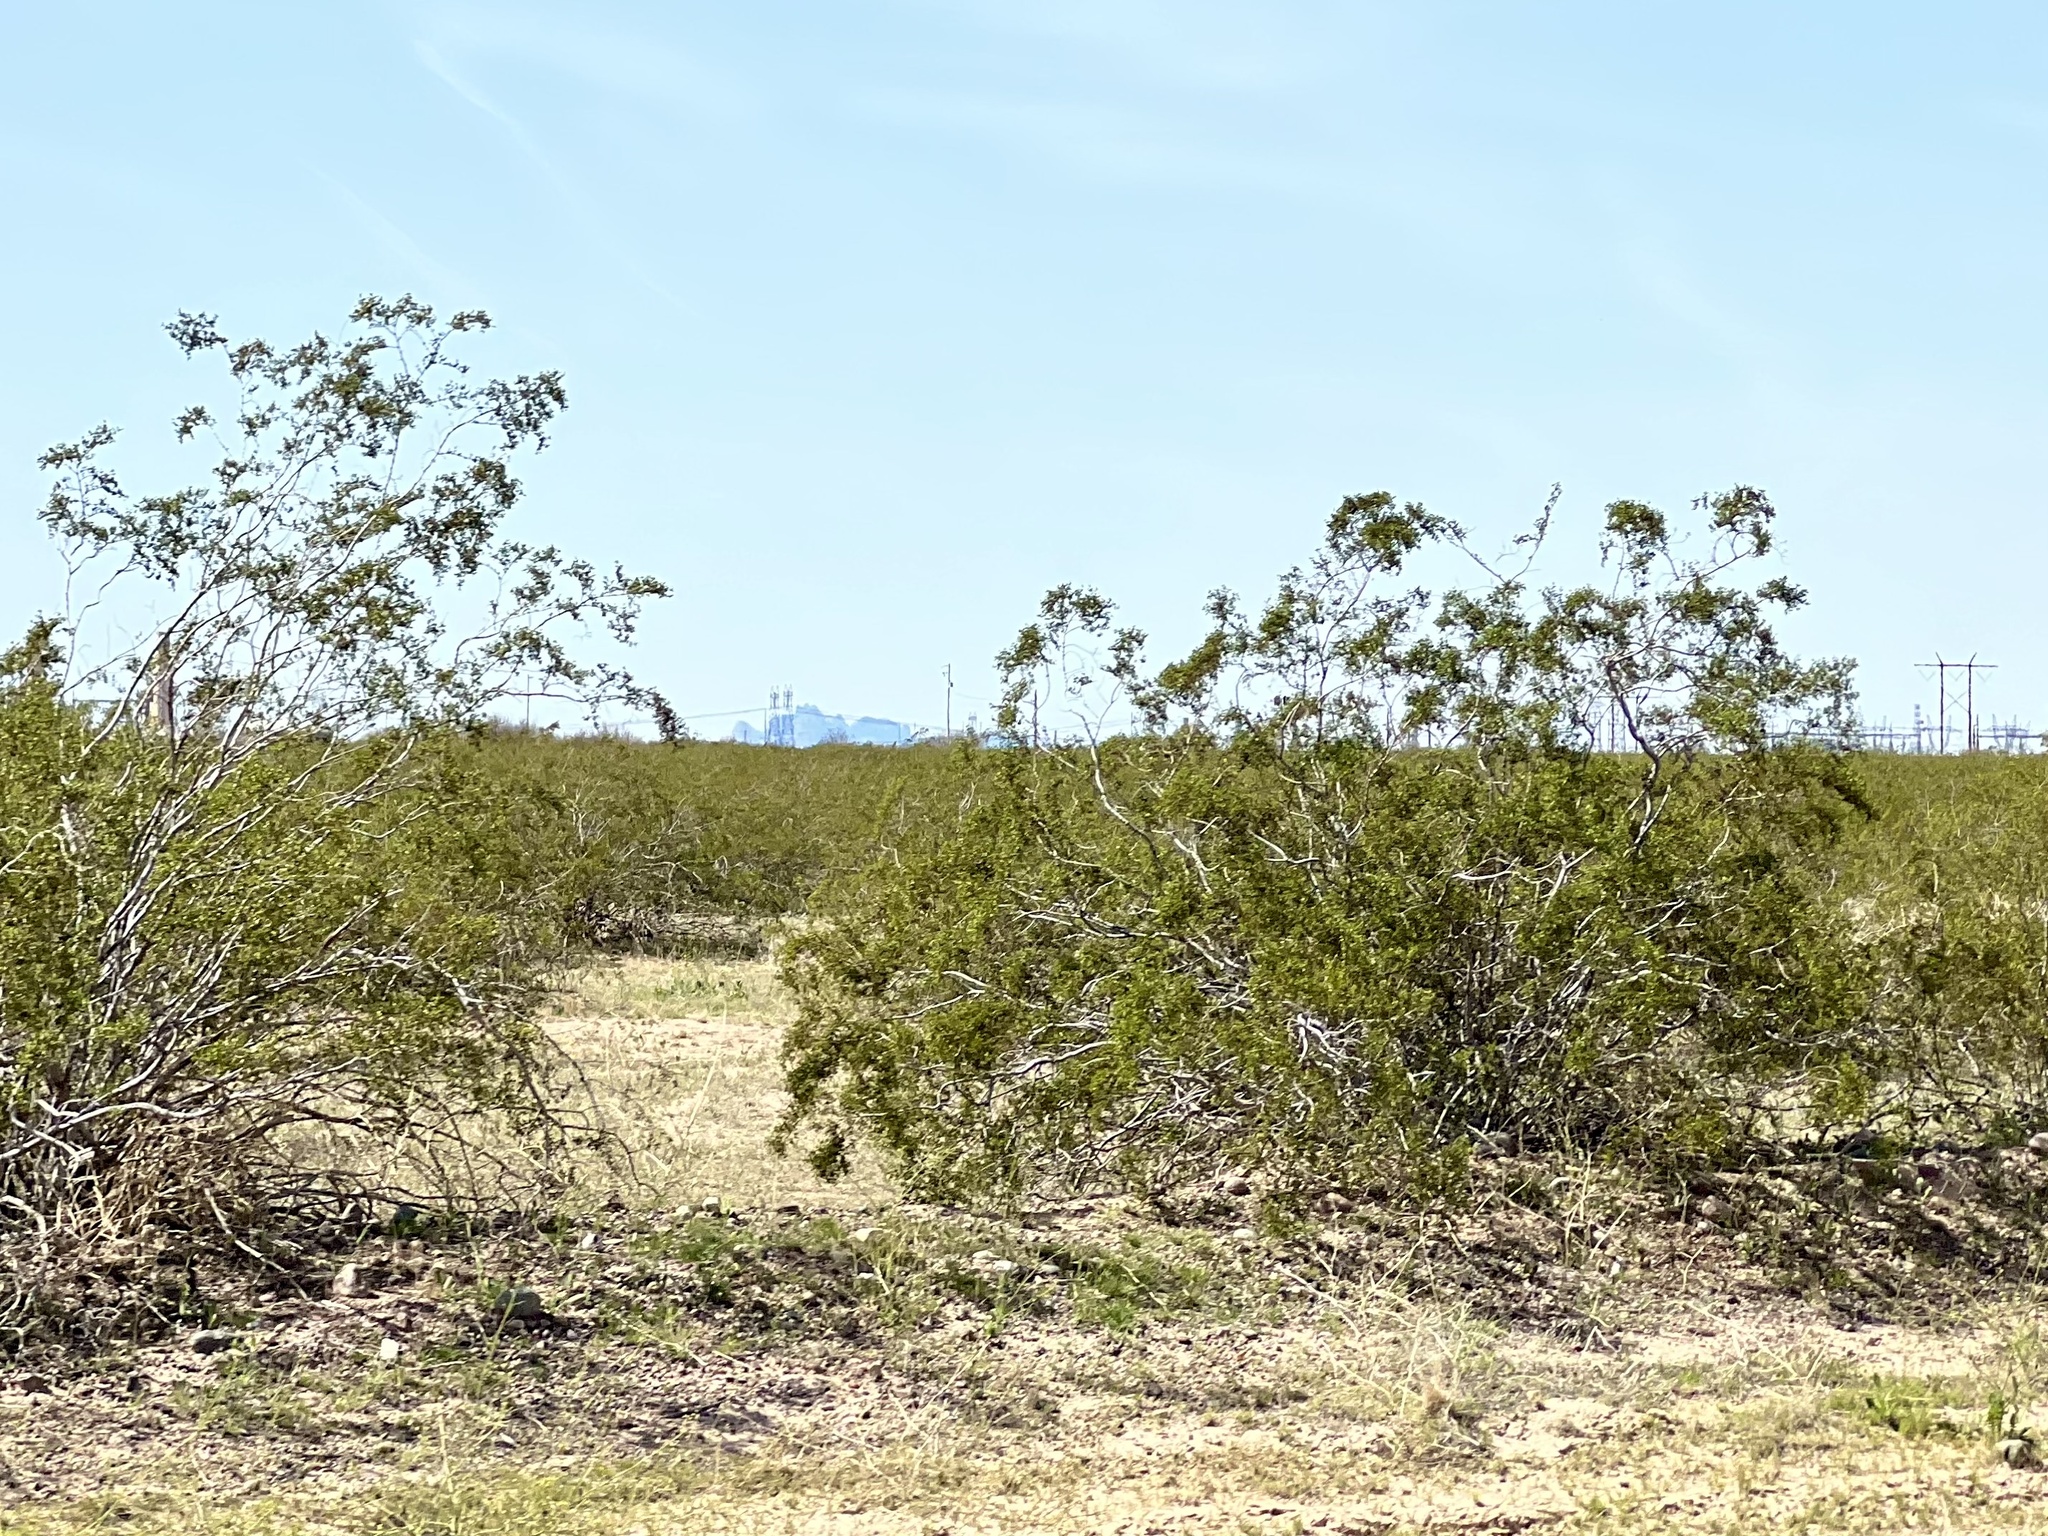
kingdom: Plantae
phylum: Tracheophyta
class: Magnoliopsida
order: Zygophyllales
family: Zygophyllaceae
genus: Larrea
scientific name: Larrea tridentata
